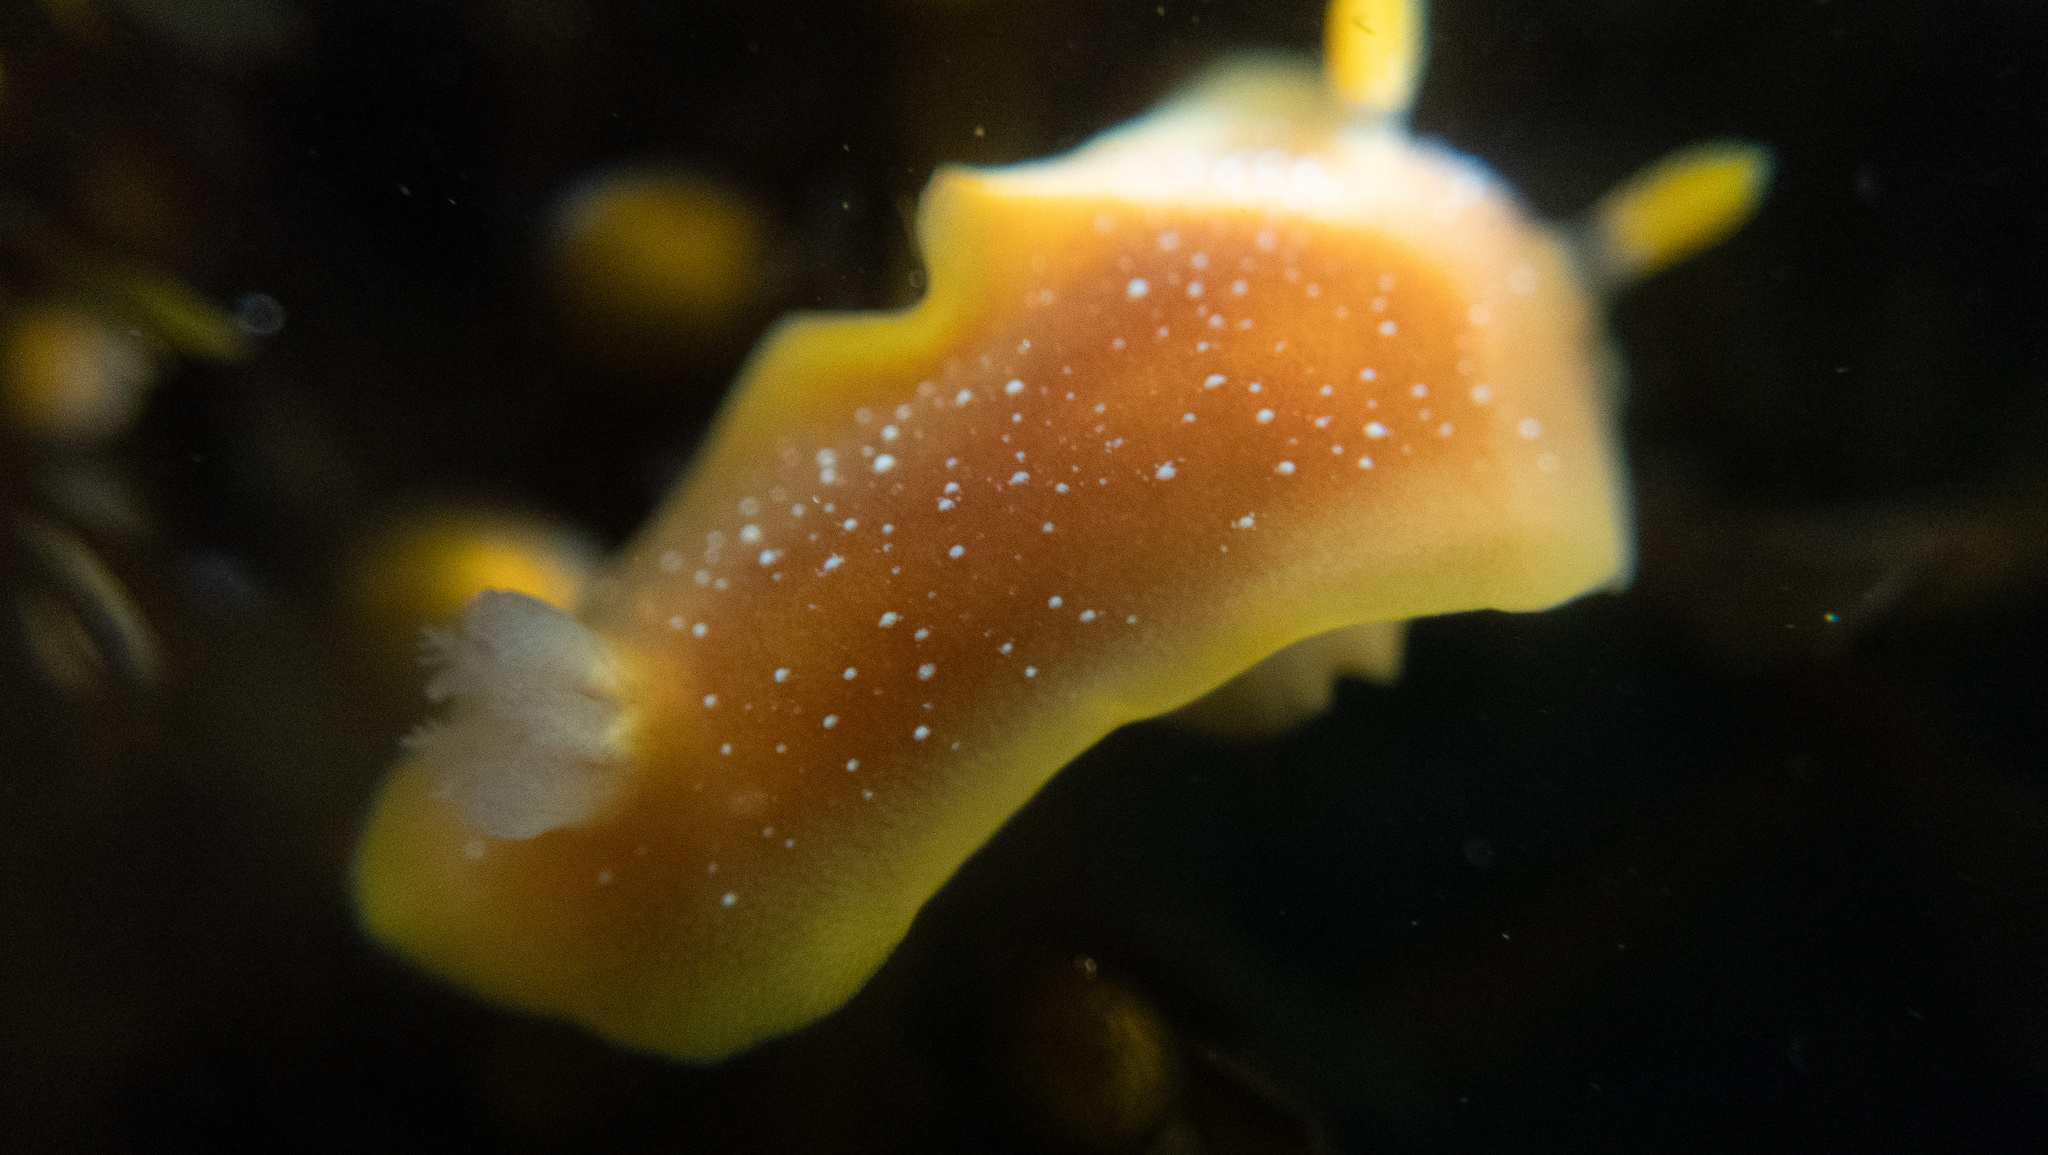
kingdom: Animalia
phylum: Mollusca
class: Gastropoda
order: Nudibranchia
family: Discodorididae
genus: Baptodoris
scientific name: Baptodoris mimetica
